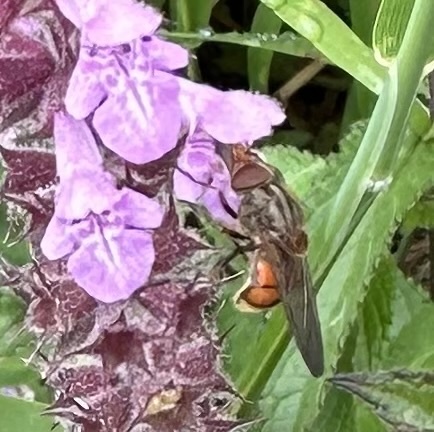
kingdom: Animalia
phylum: Arthropoda
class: Insecta
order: Diptera
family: Syrphidae
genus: Rhingia
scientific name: Rhingia campestris
